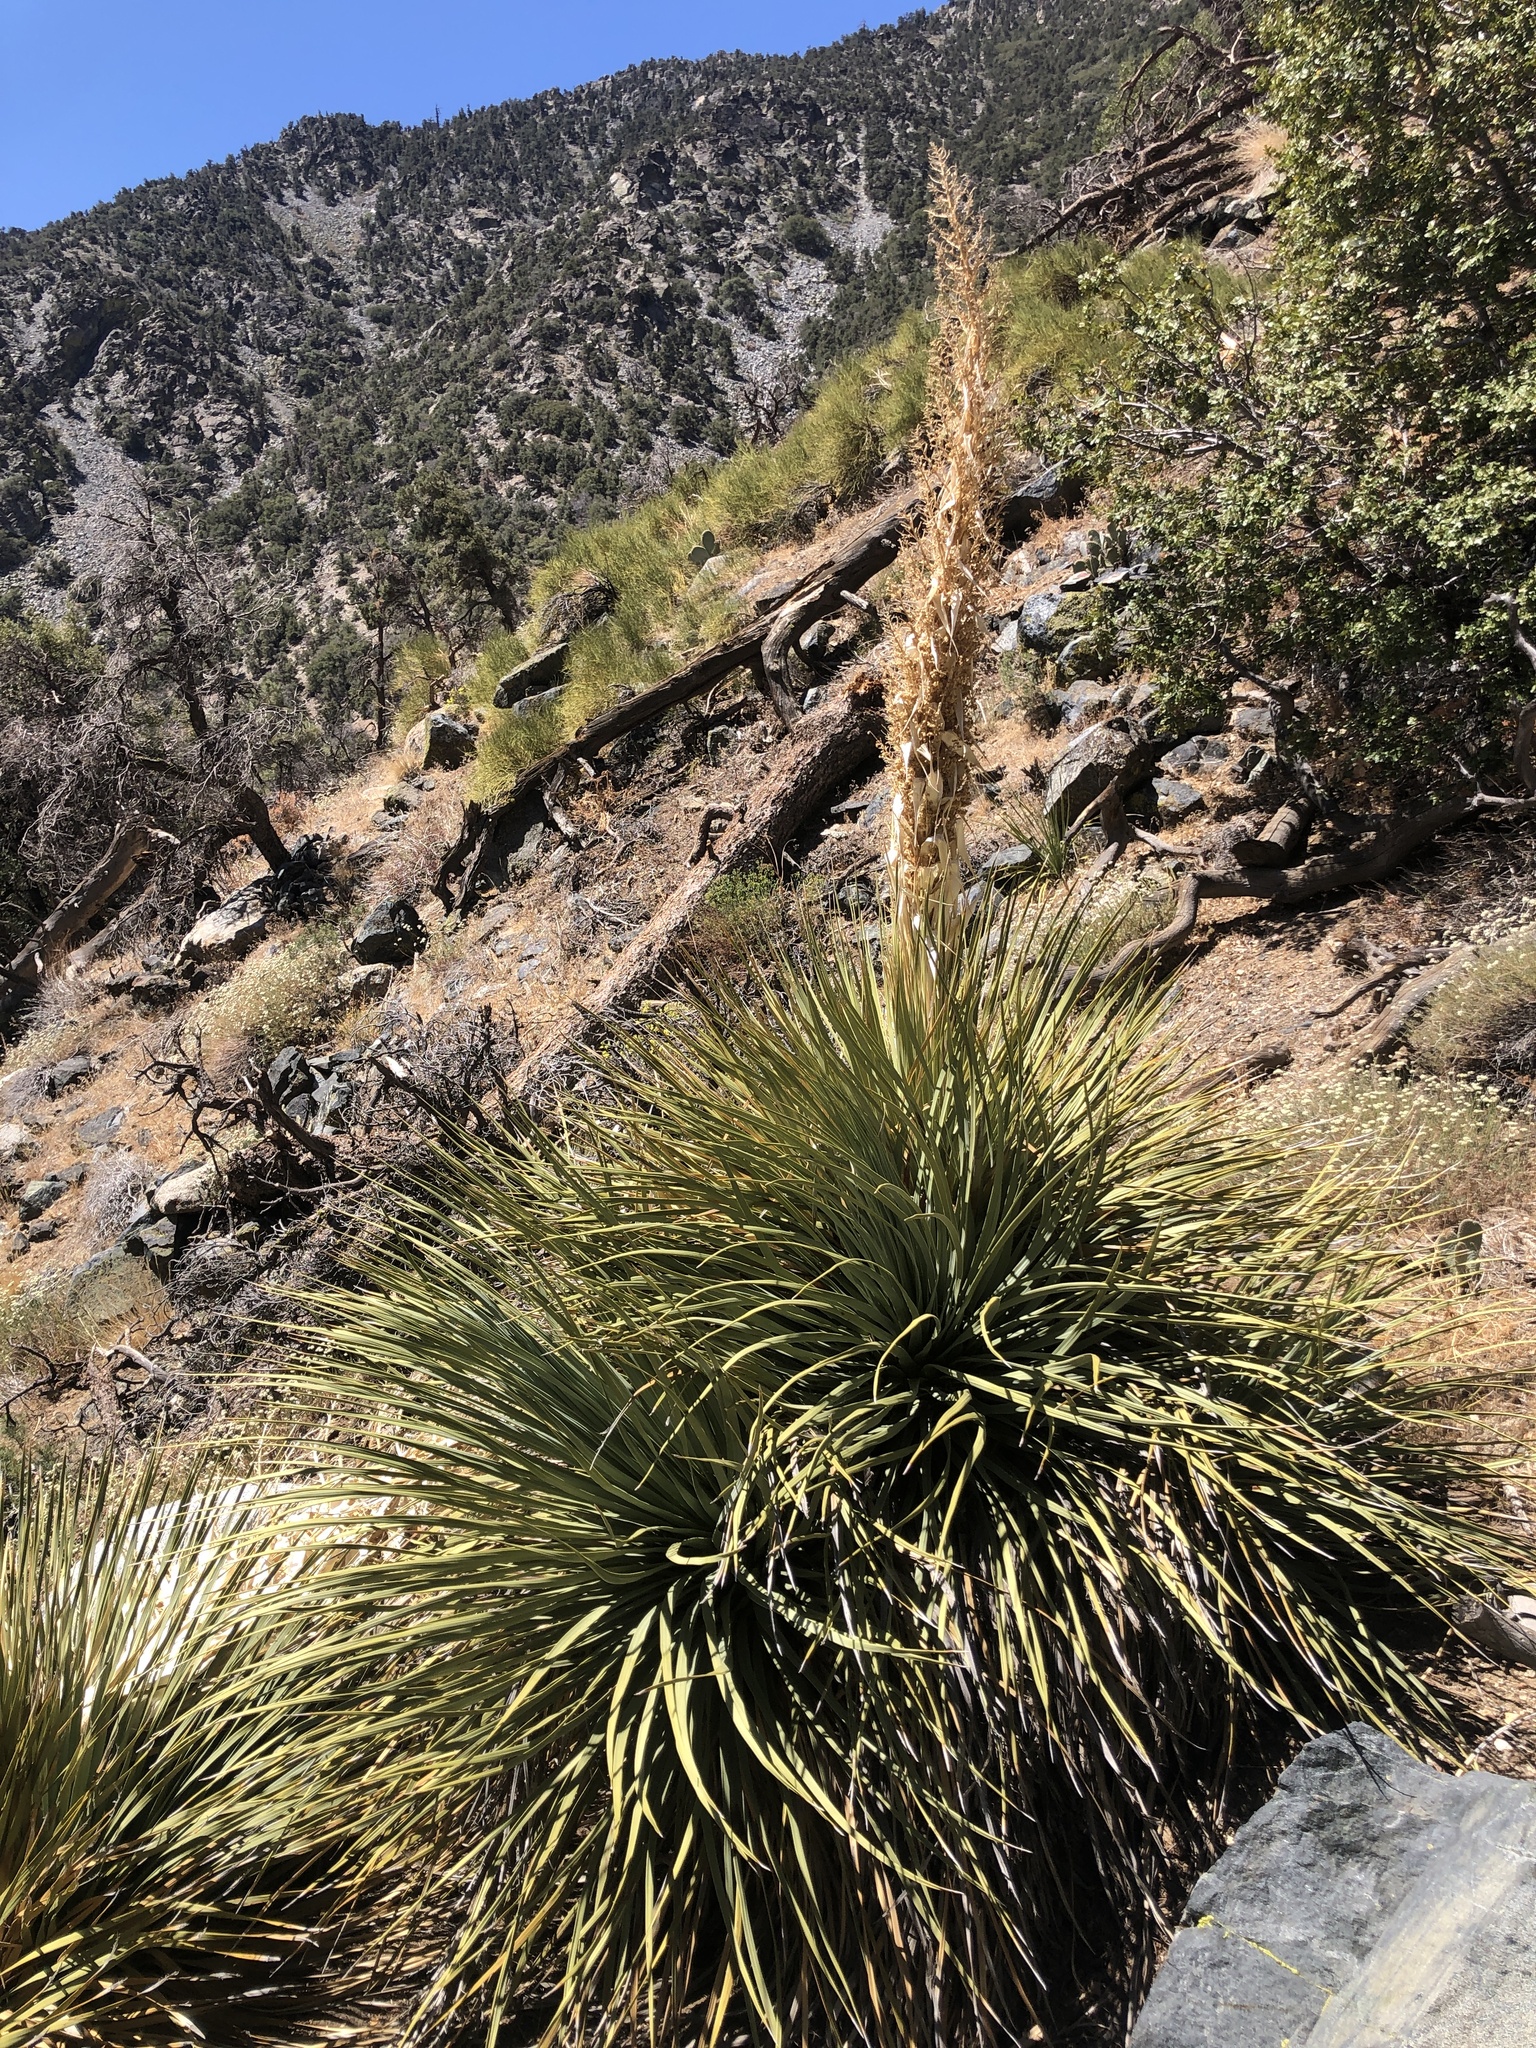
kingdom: Plantae
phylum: Tracheophyta
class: Liliopsida
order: Asparagales
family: Asparagaceae
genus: Nolina
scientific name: Nolina parryi
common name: Parry nolina
